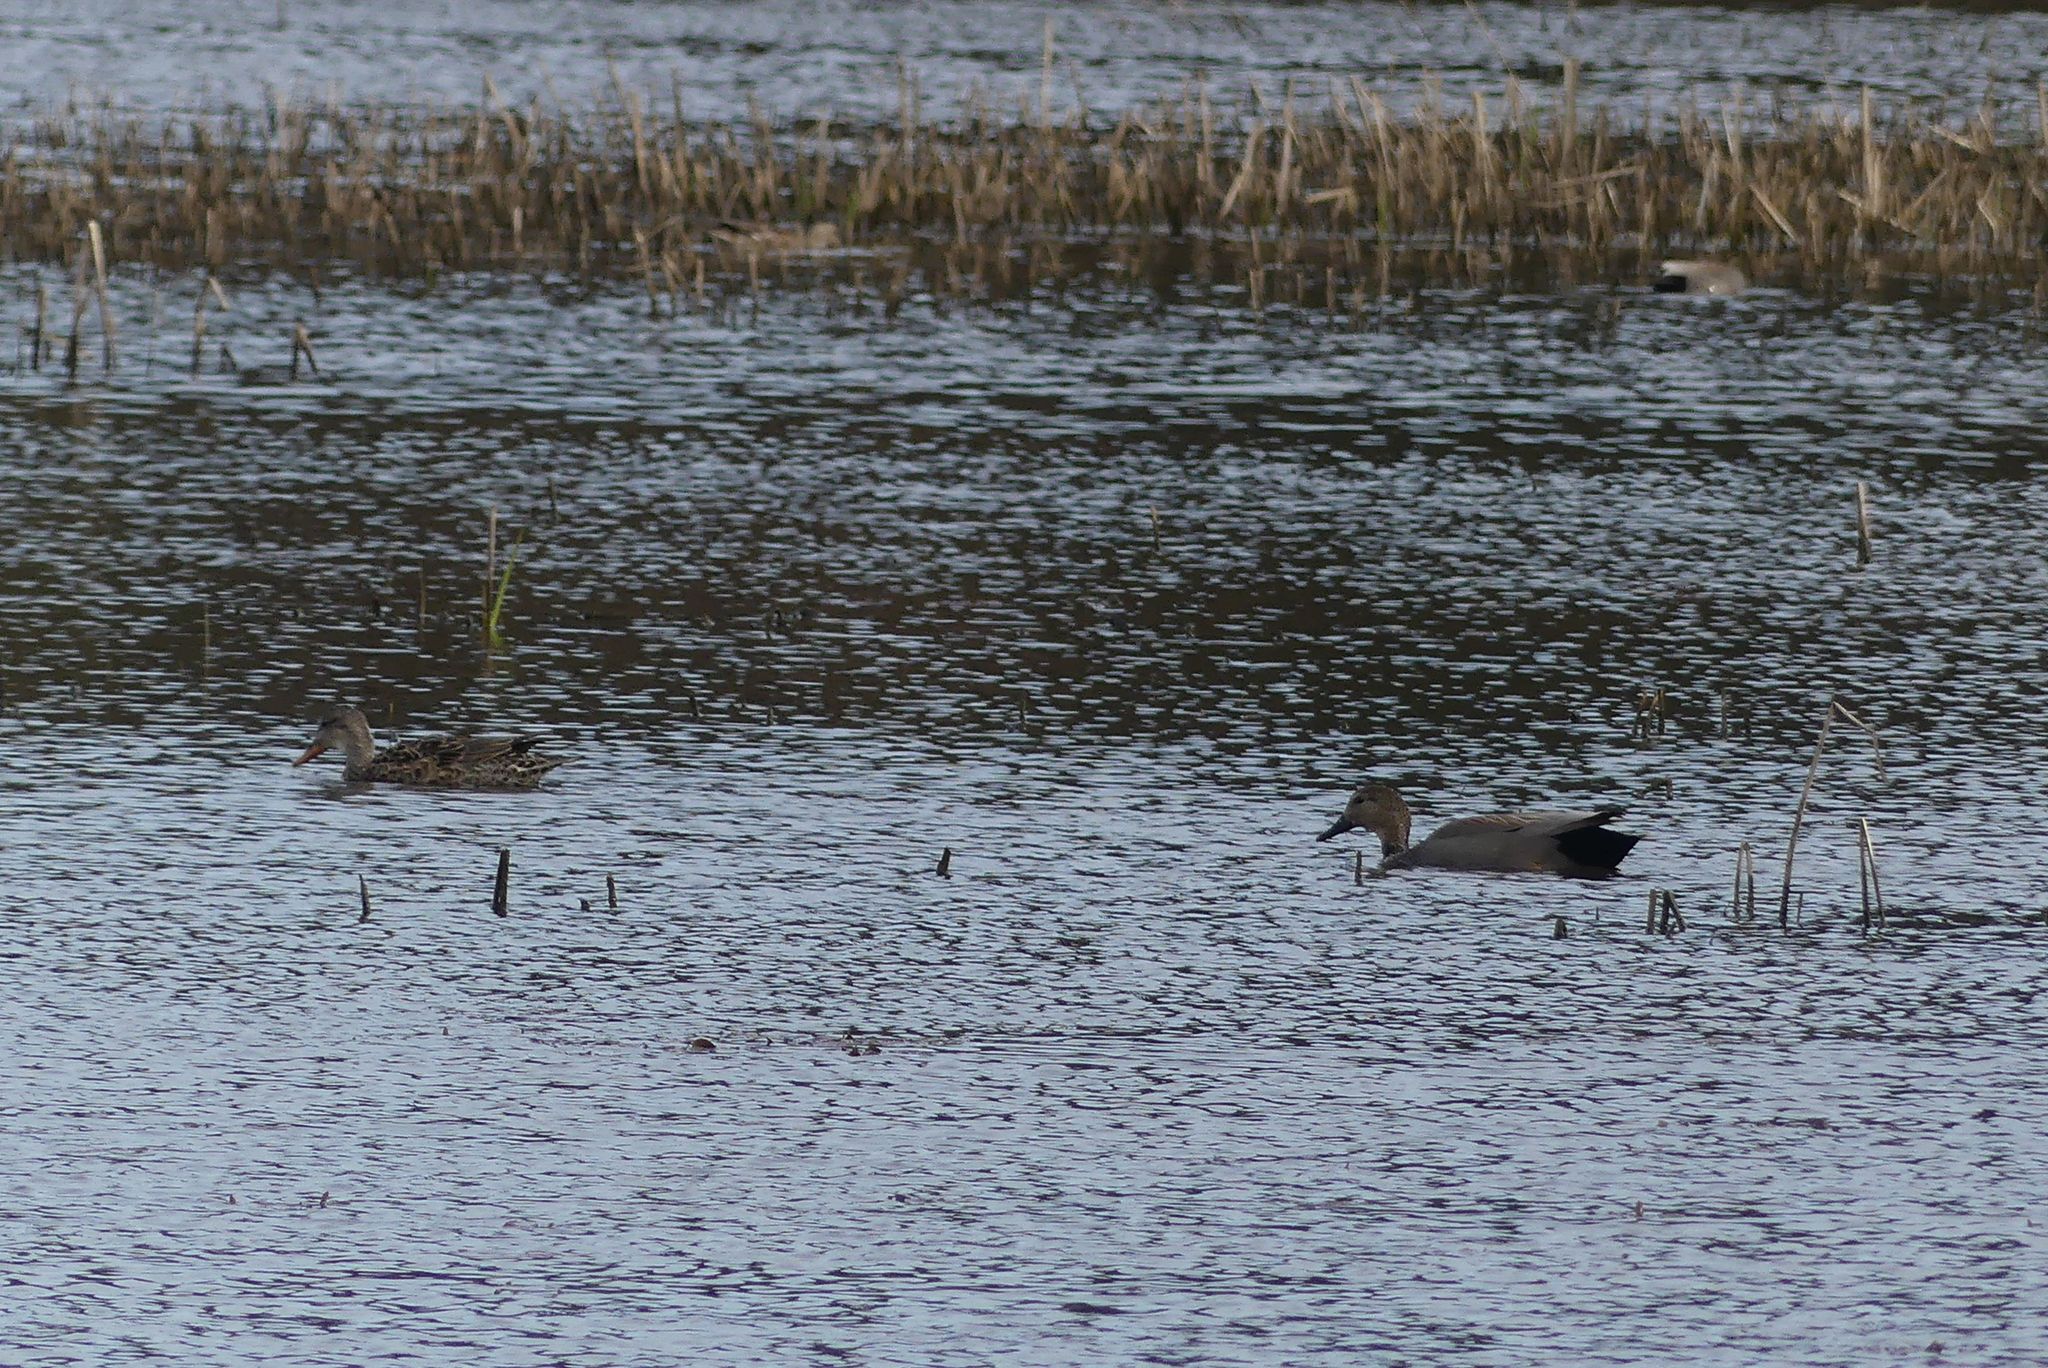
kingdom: Animalia
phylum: Chordata
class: Aves
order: Anseriformes
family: Anatidae
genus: Mareca
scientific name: Mareca strepera
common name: Gadwall
